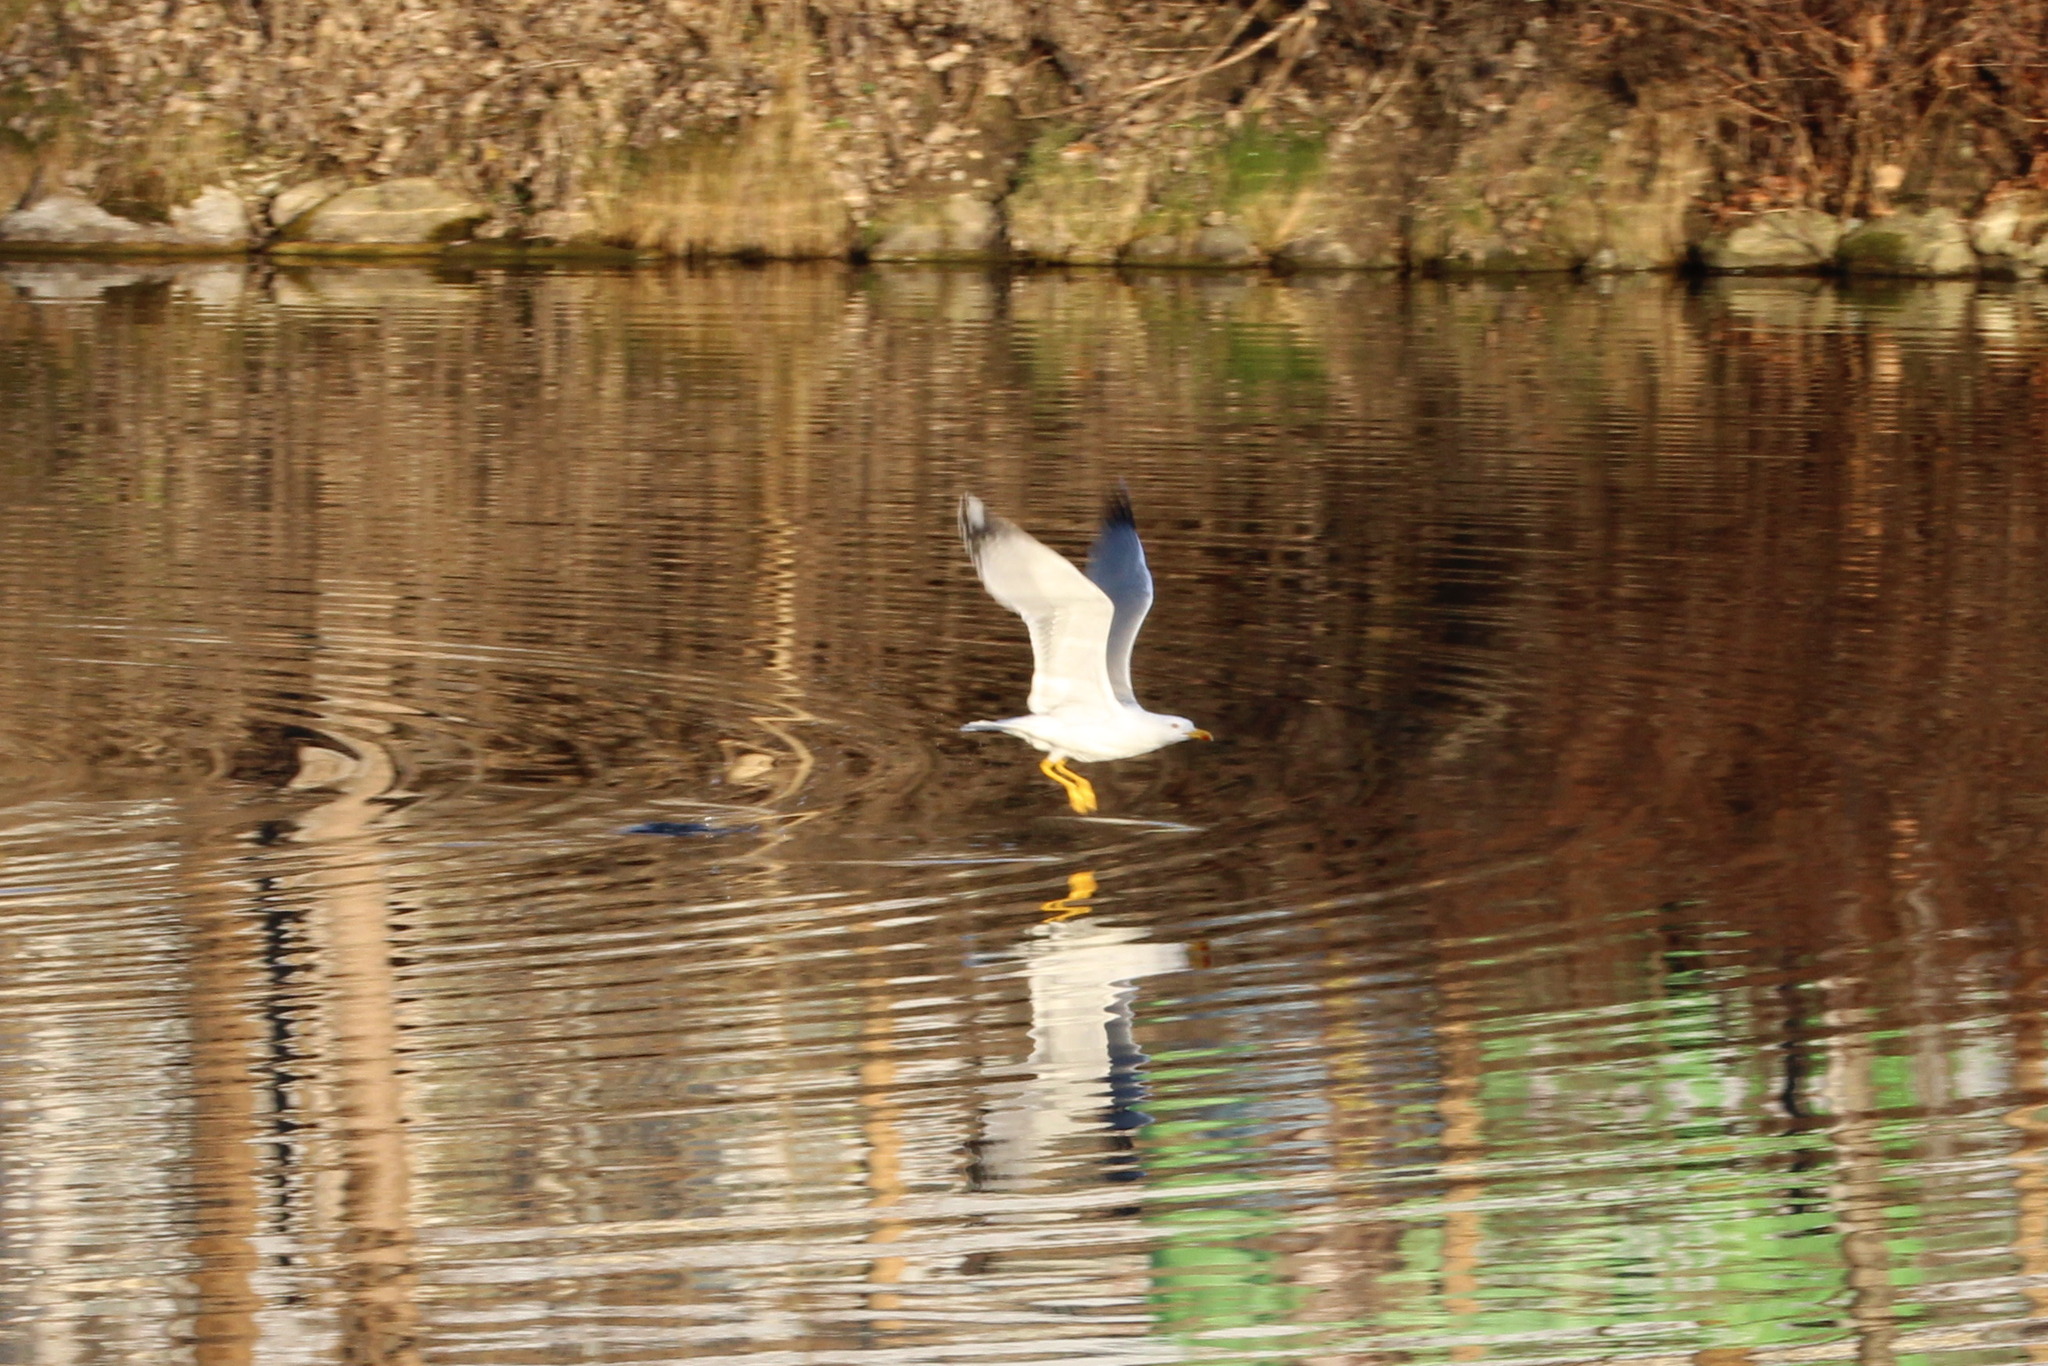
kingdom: Animalia
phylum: Chordata
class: Aves
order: Charadriiformes
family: Laridae
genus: Larus
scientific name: Larus michahellis
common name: Yellow-legged gull
